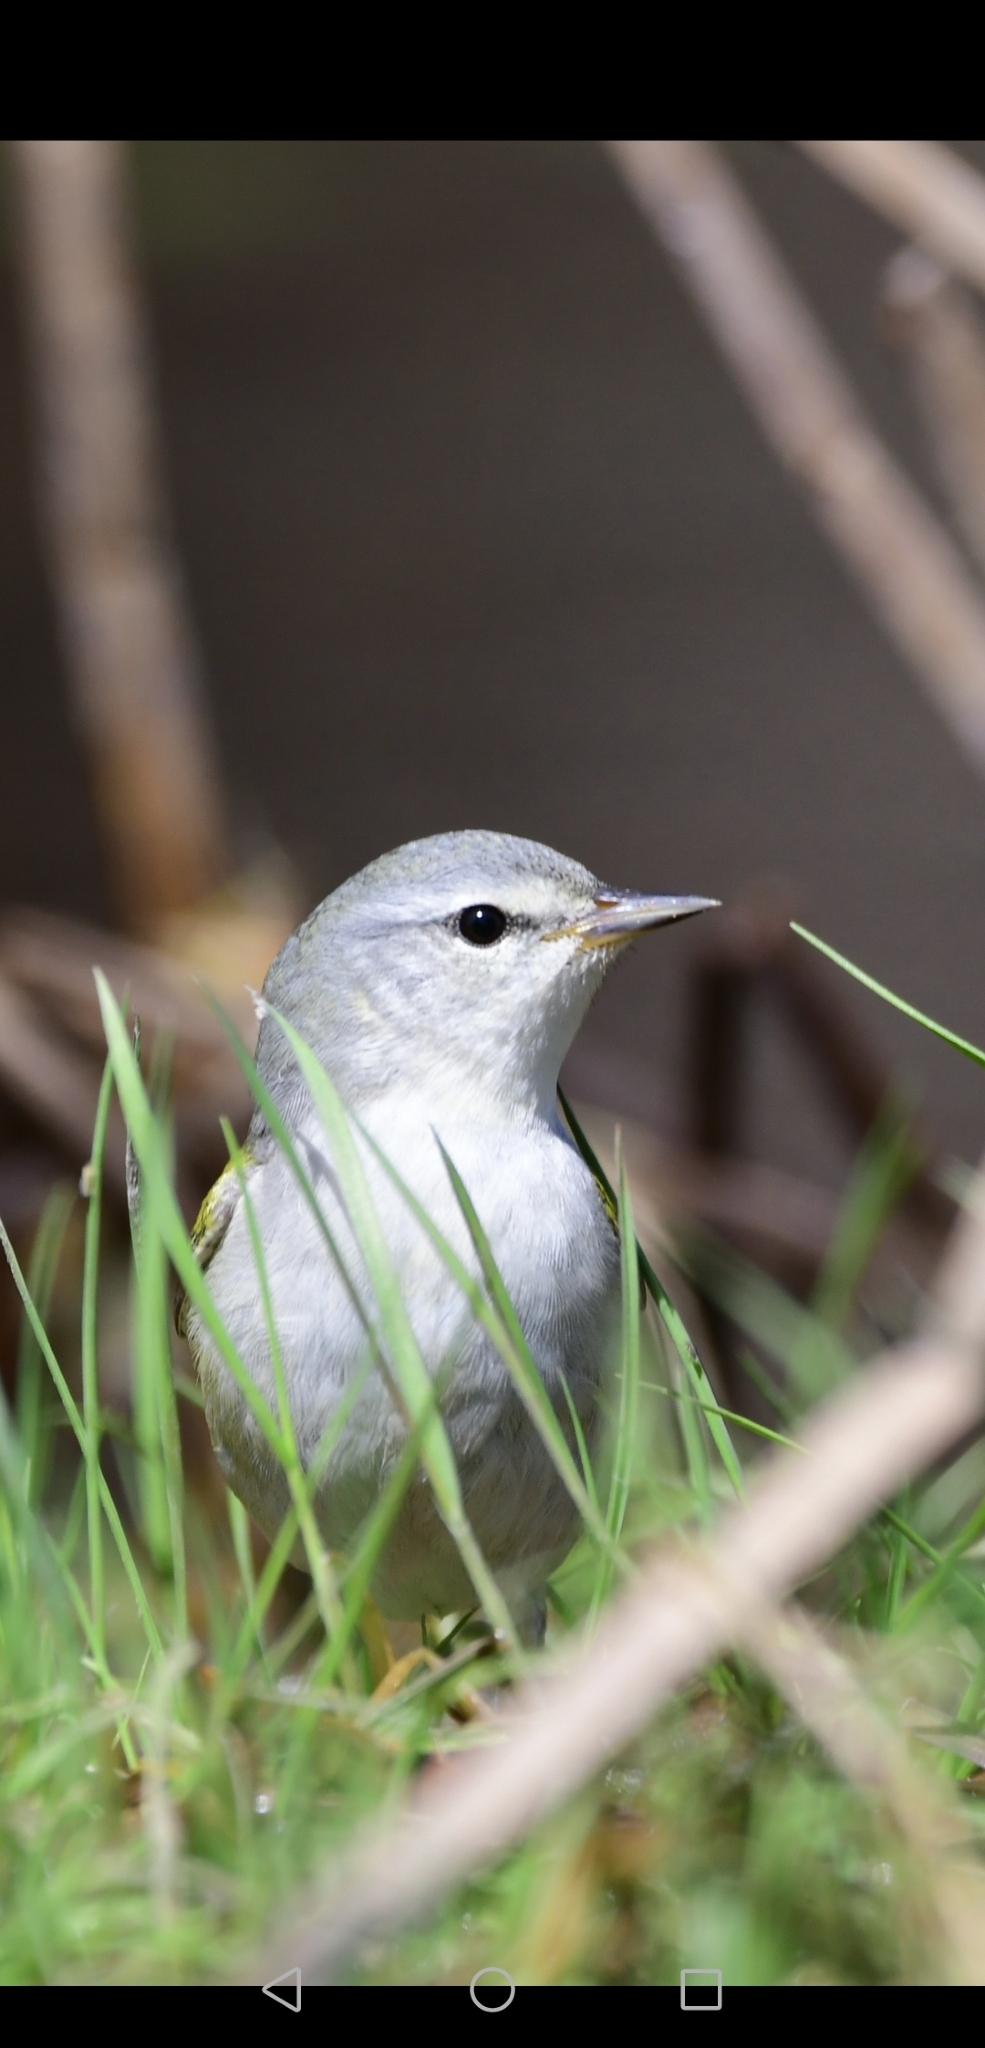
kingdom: Animalia
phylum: Chordata
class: Aves
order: Passeriformes
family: Parulidae
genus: Leiothlypis
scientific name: Leiothlypis peregrina
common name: Tennessee warbler
